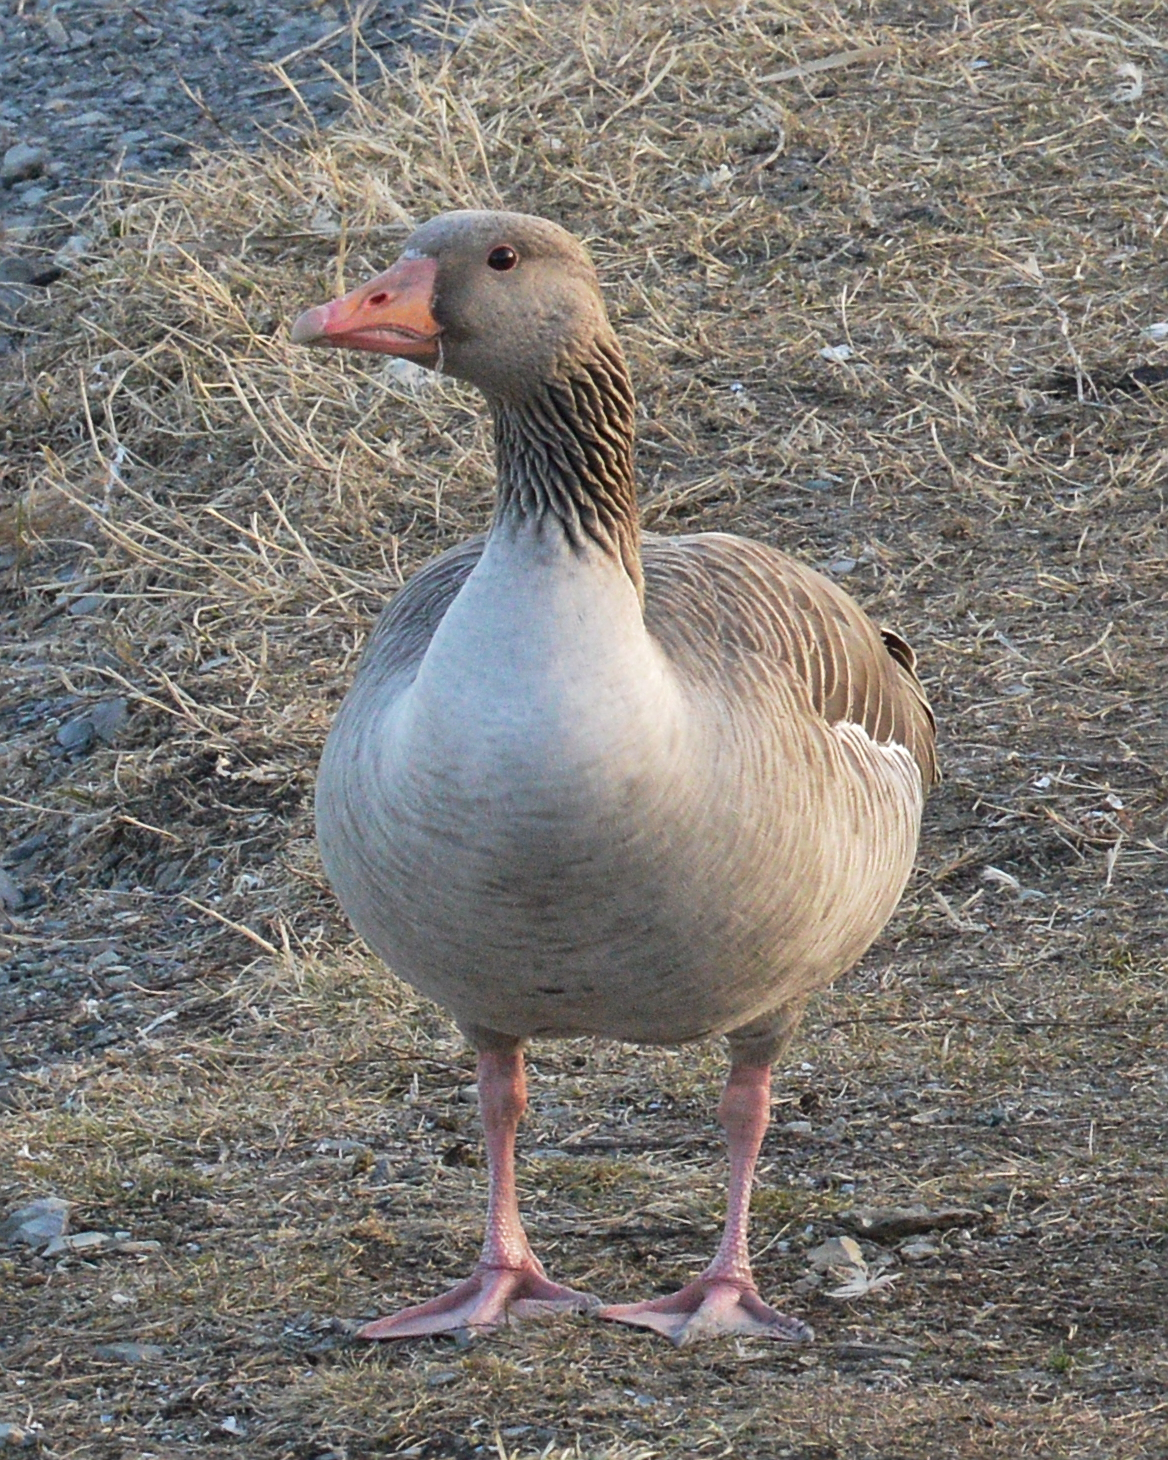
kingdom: Animalia
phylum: Chordata
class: Aves
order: Anseriformes
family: Anatidae
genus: Anser
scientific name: Anser anser
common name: Greylag goose
